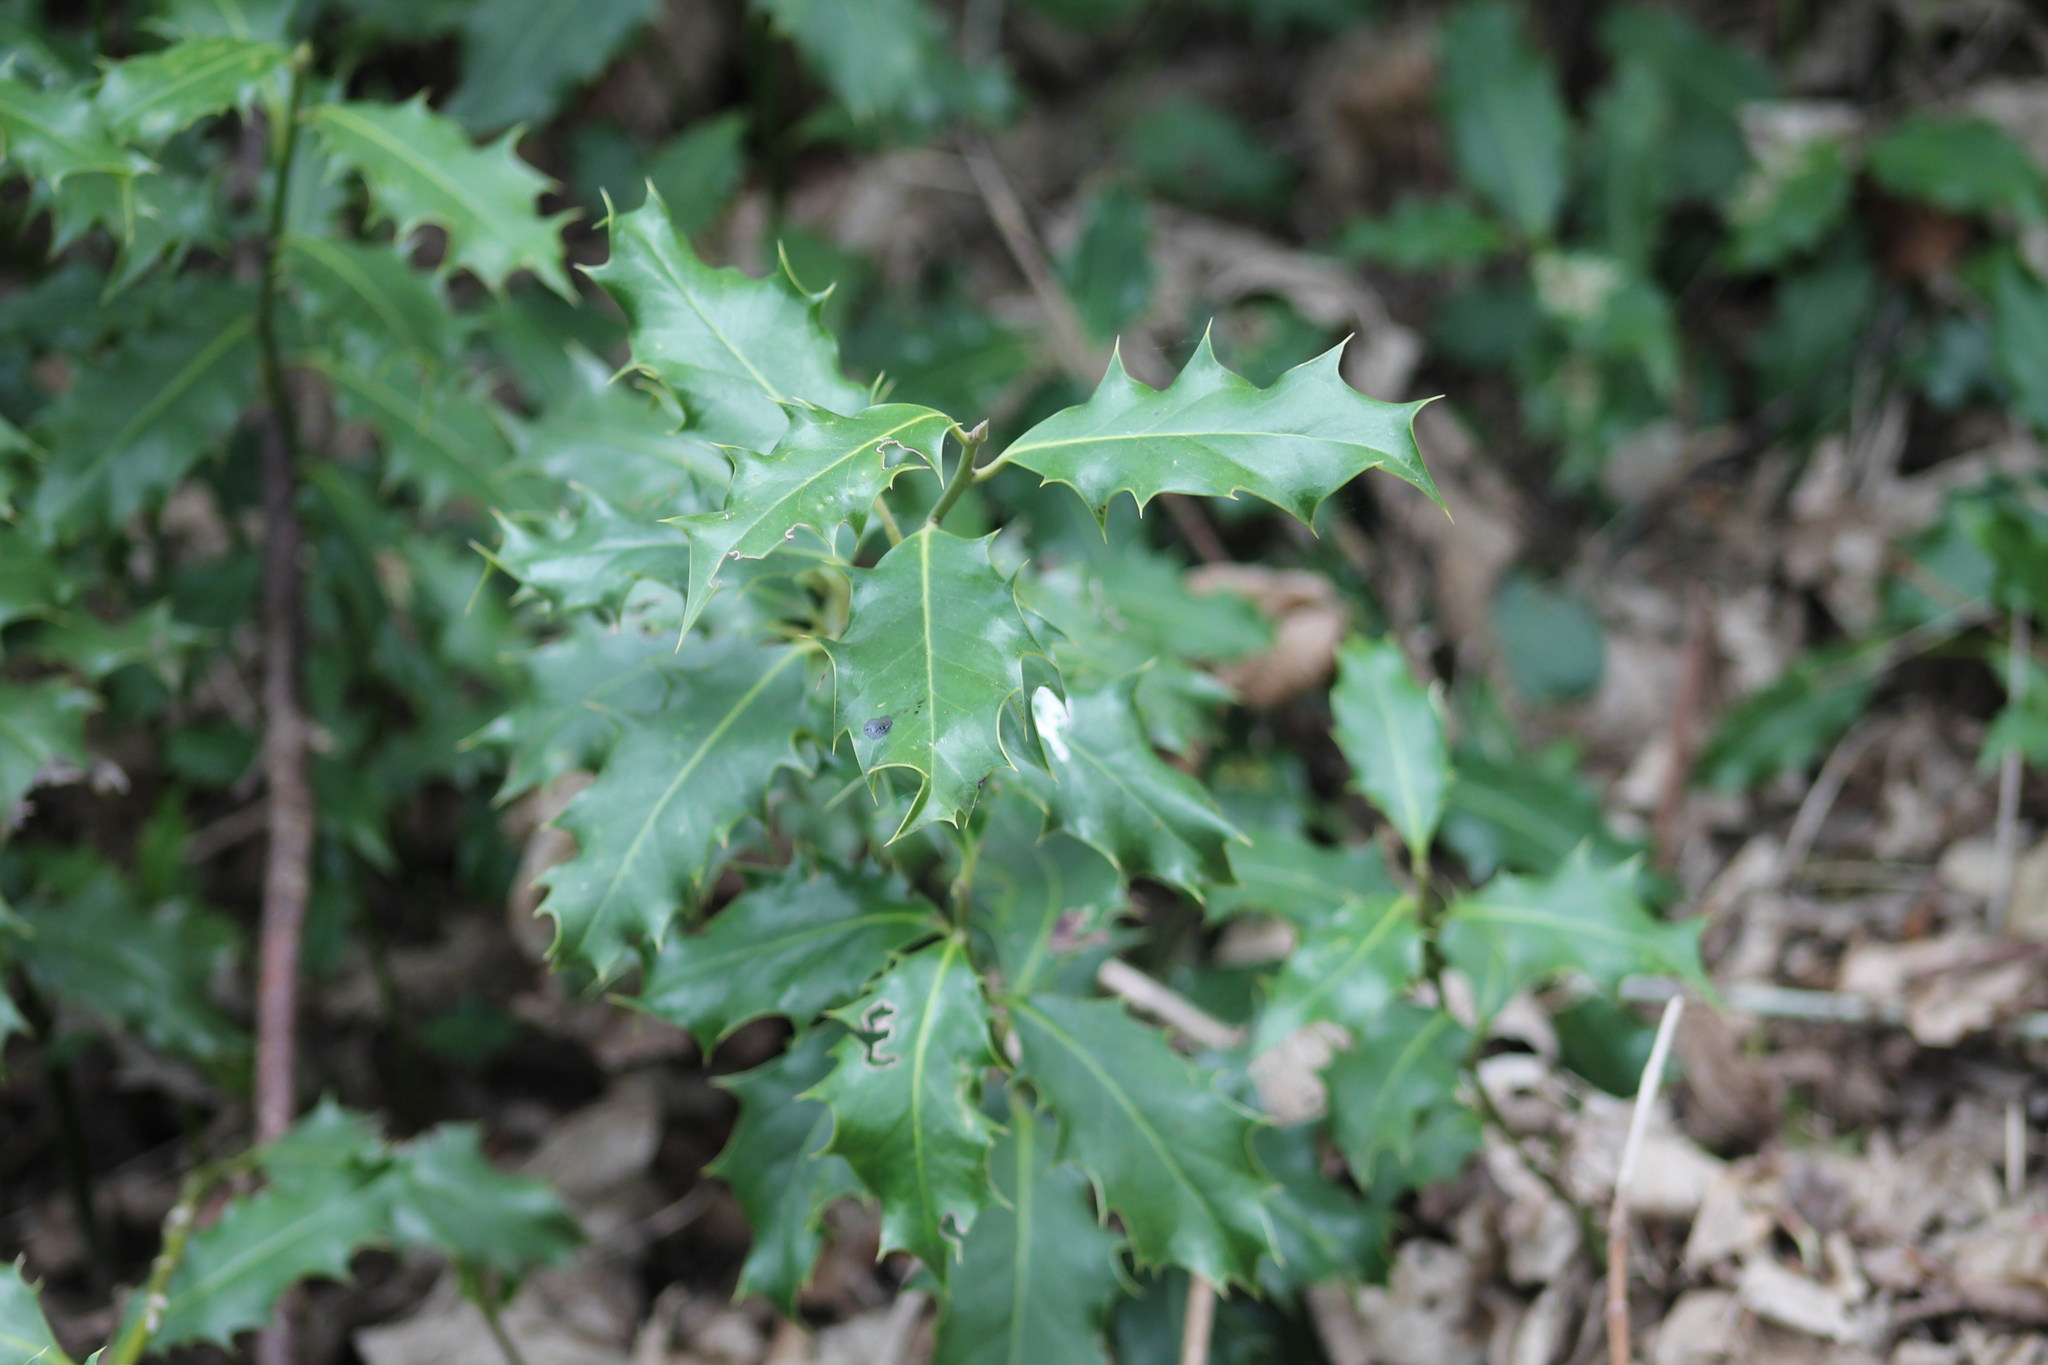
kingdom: Plantae
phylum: Tracheophyta
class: Magnoliopsida
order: Aquifoliales
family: Aquifoliaceae
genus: Ilex
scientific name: Ilex aquifolium
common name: English holly
